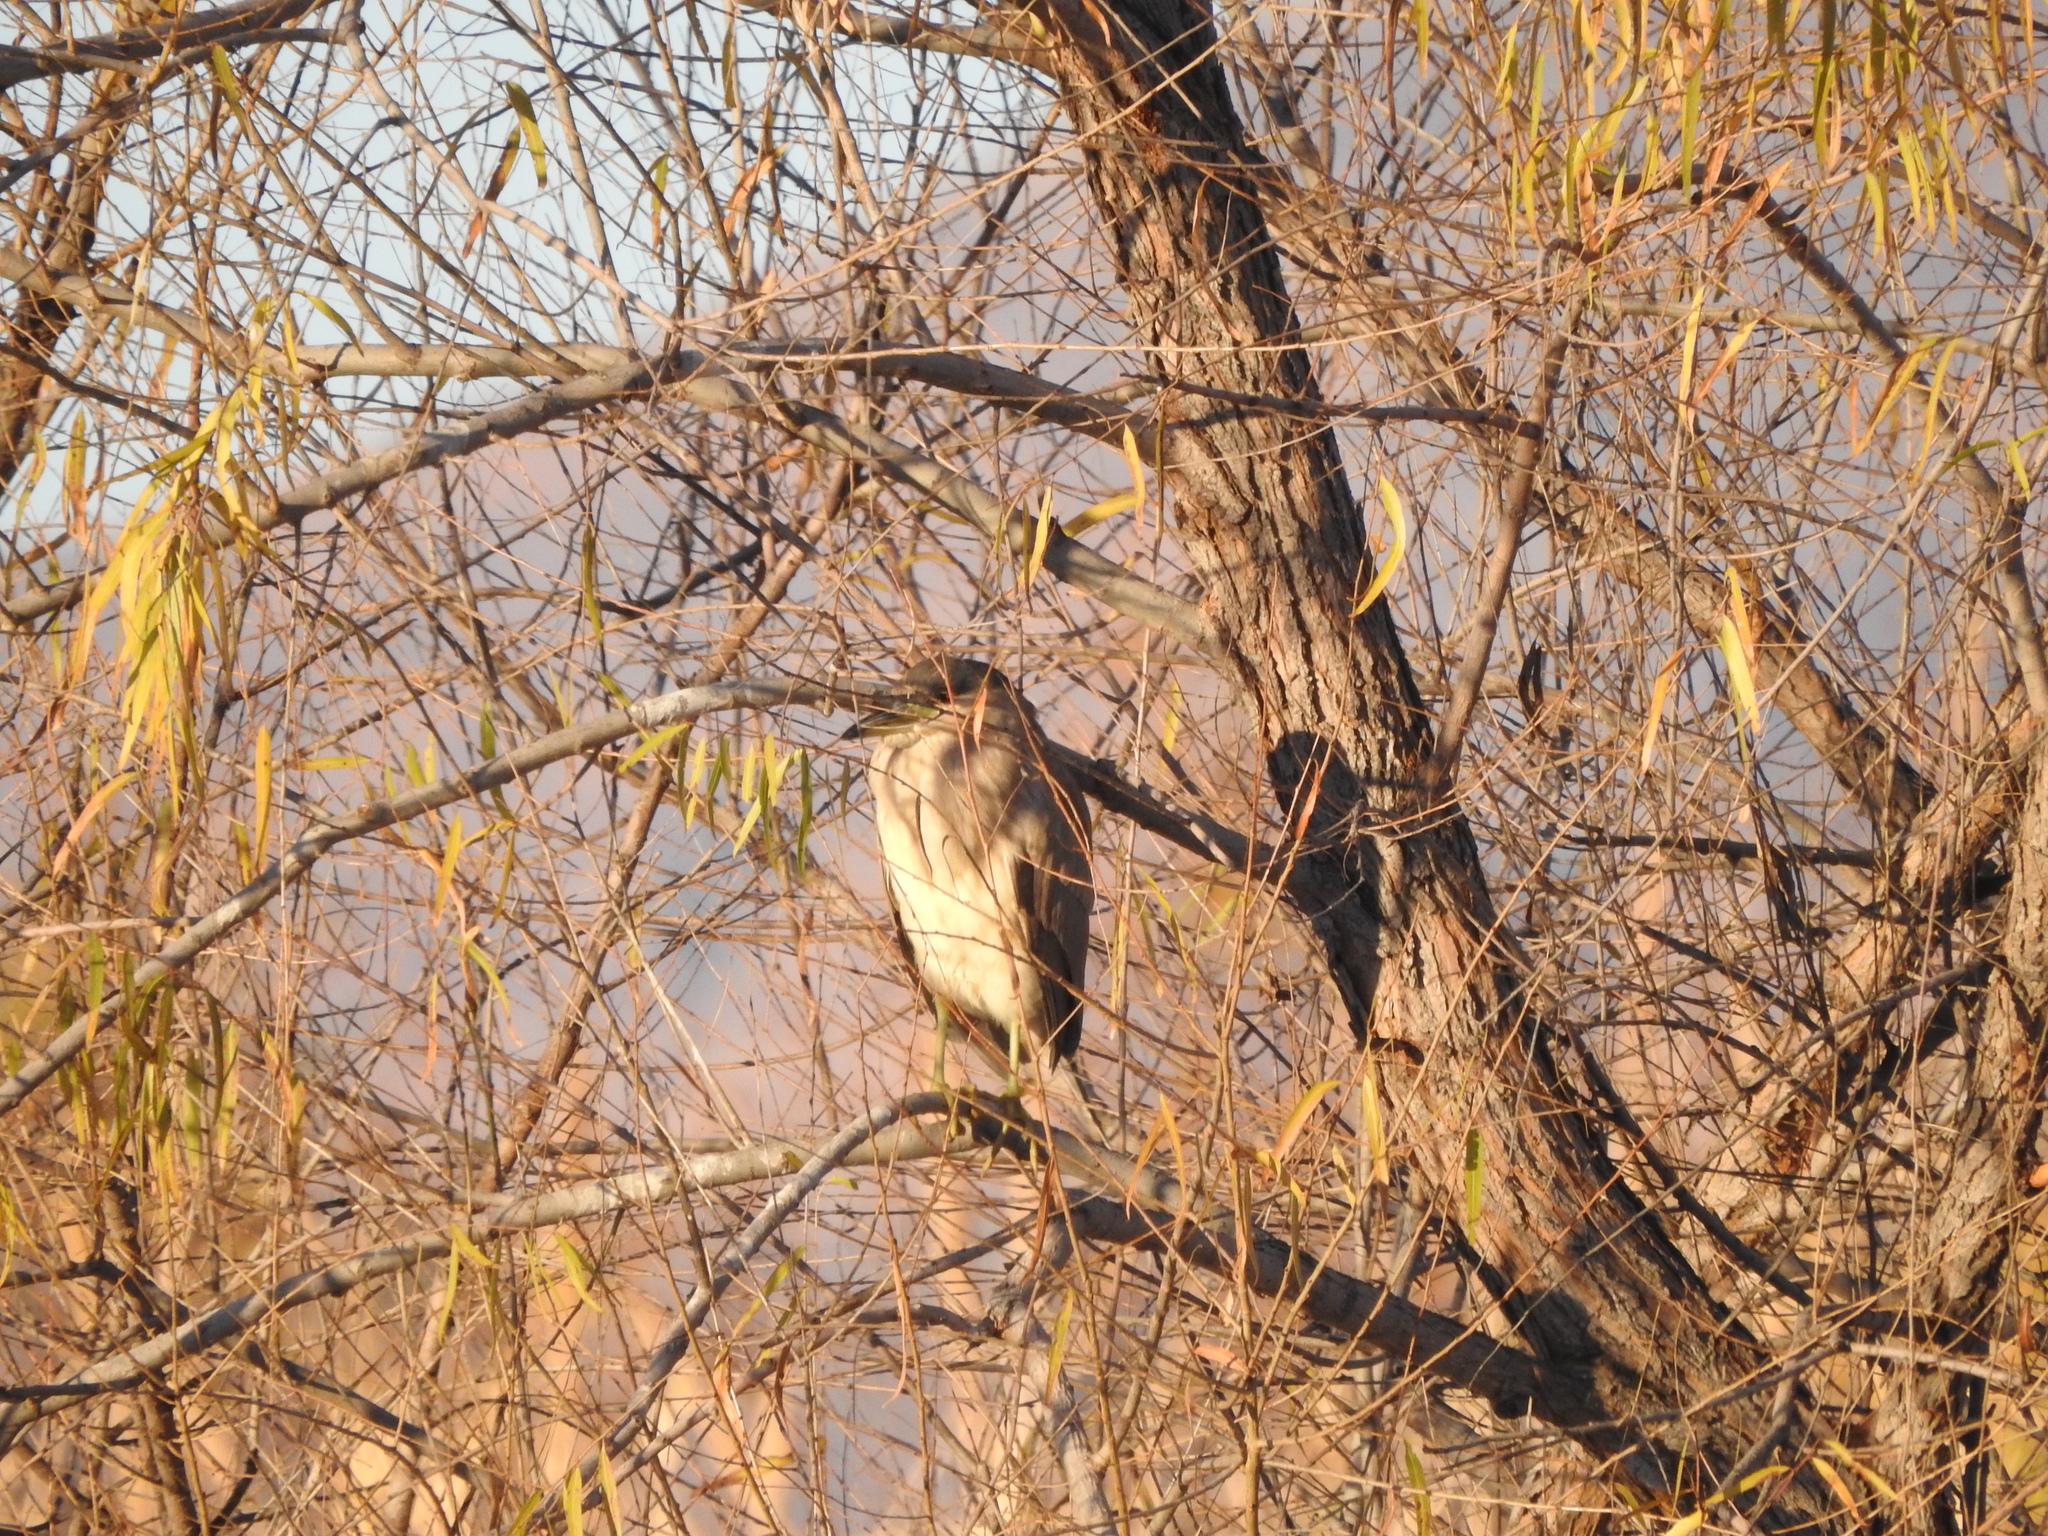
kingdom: Animalia
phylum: Chordata
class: Aves
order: Pelecaniformes
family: Ardeidae
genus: Nycticorax
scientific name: Nycticorax nycticorax
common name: Black-crowned night heron
